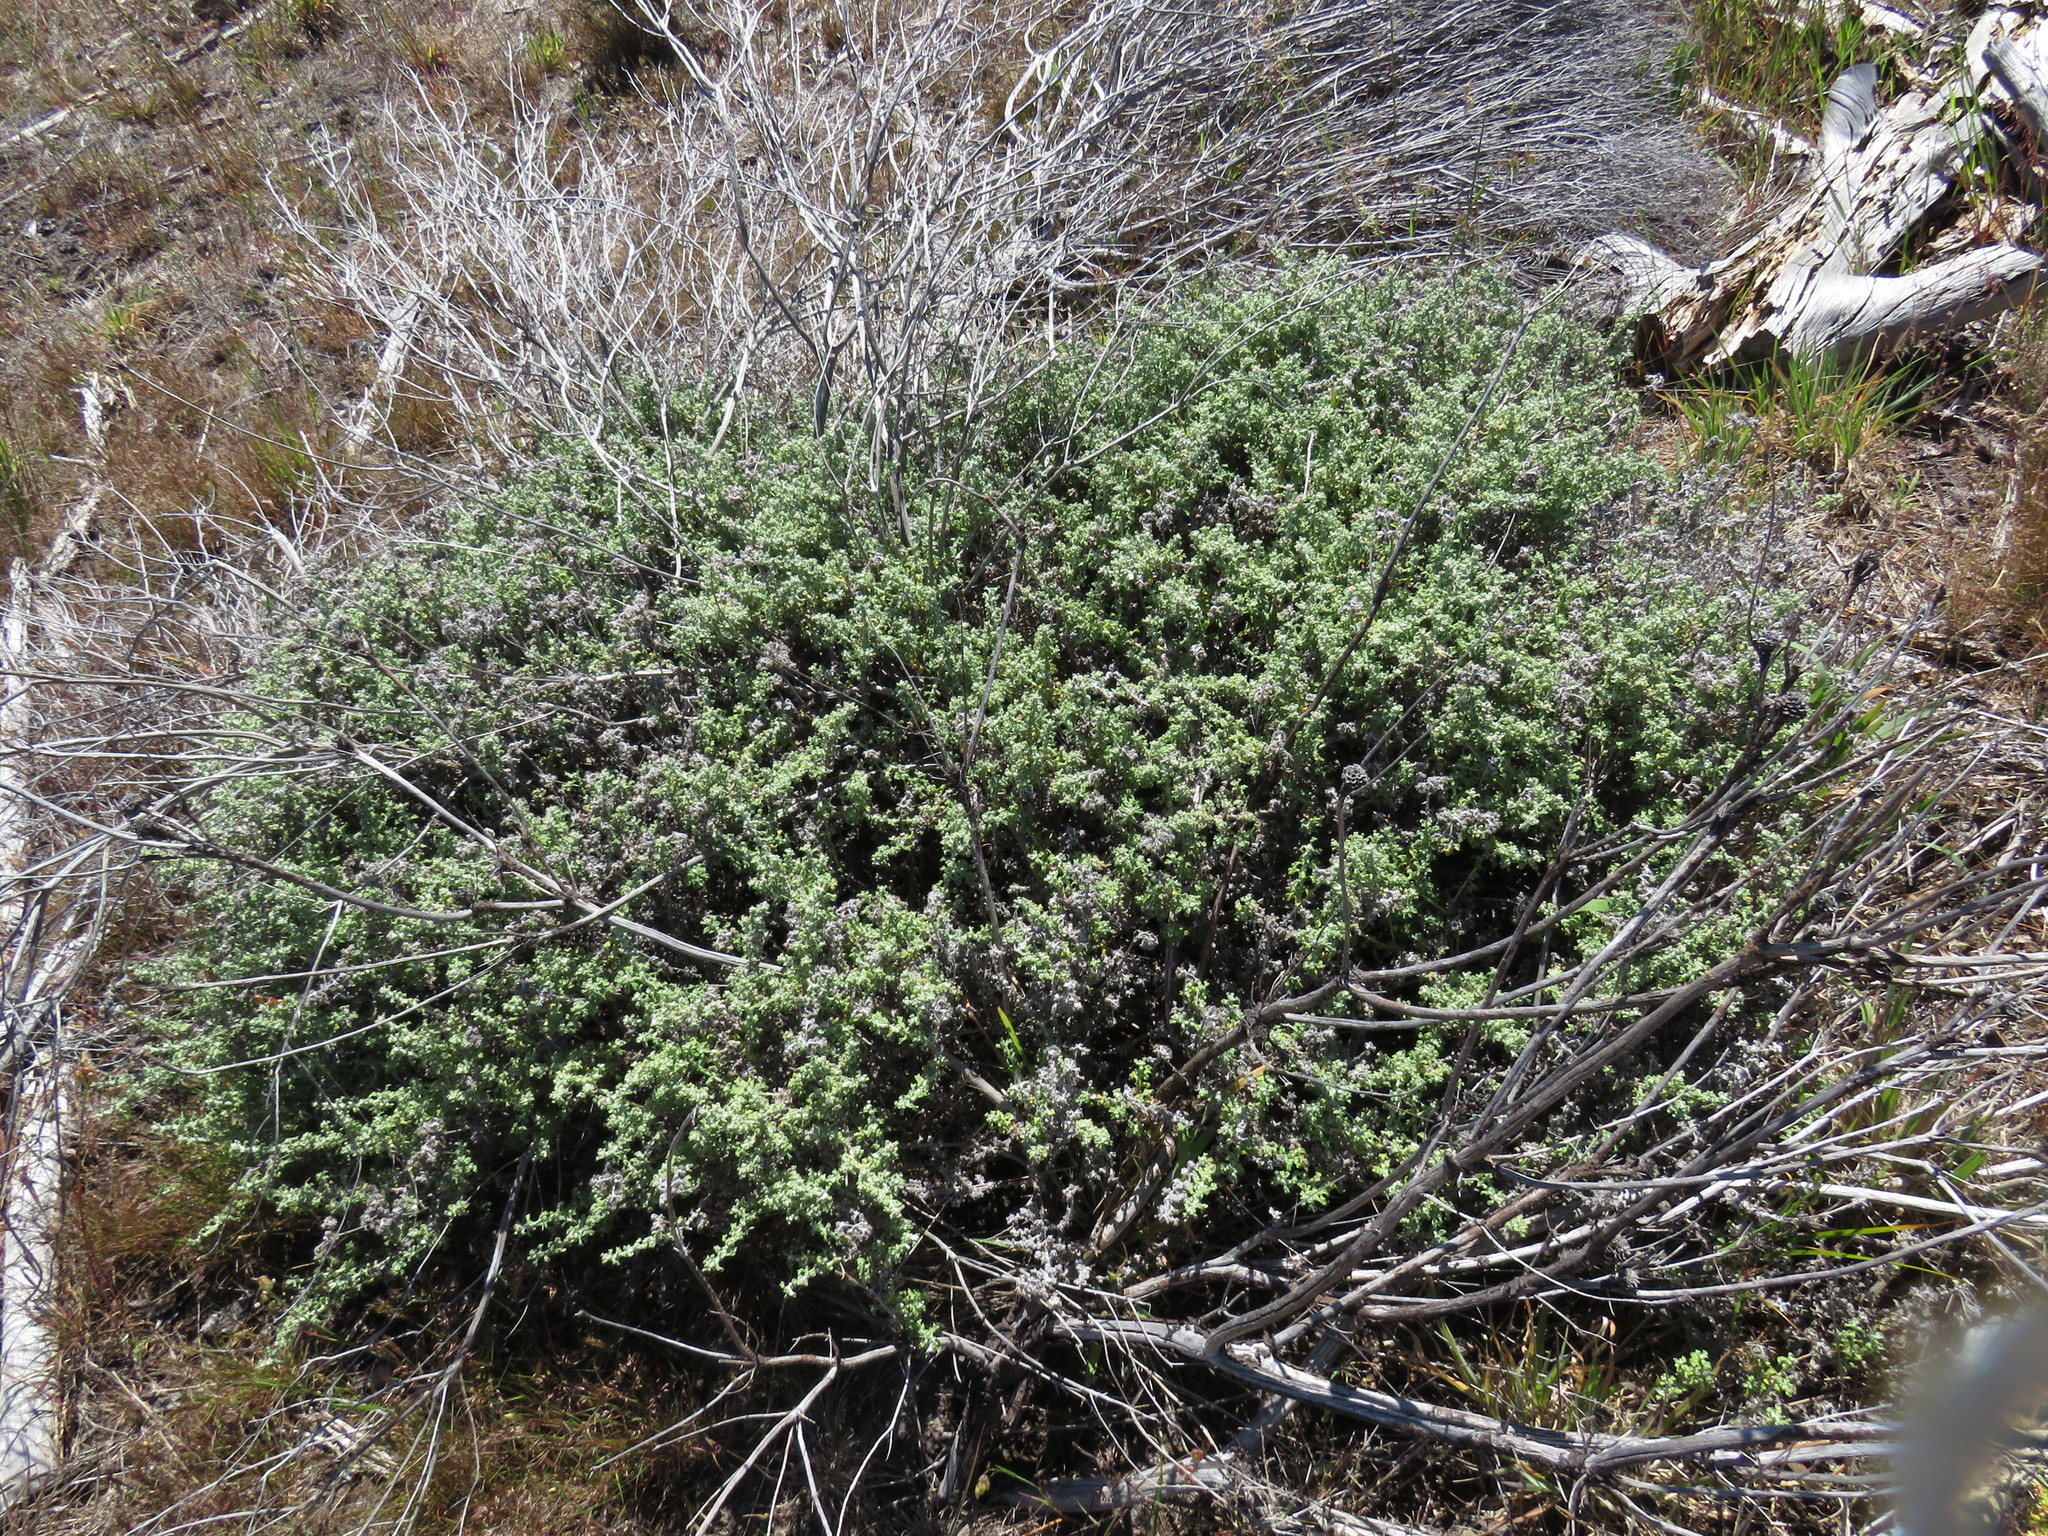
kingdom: Plantae
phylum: Tracheophyta
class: Magnoliopsida
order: Asterales
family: Asteraceae
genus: Helichrysum
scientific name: Helichrysum patulum
